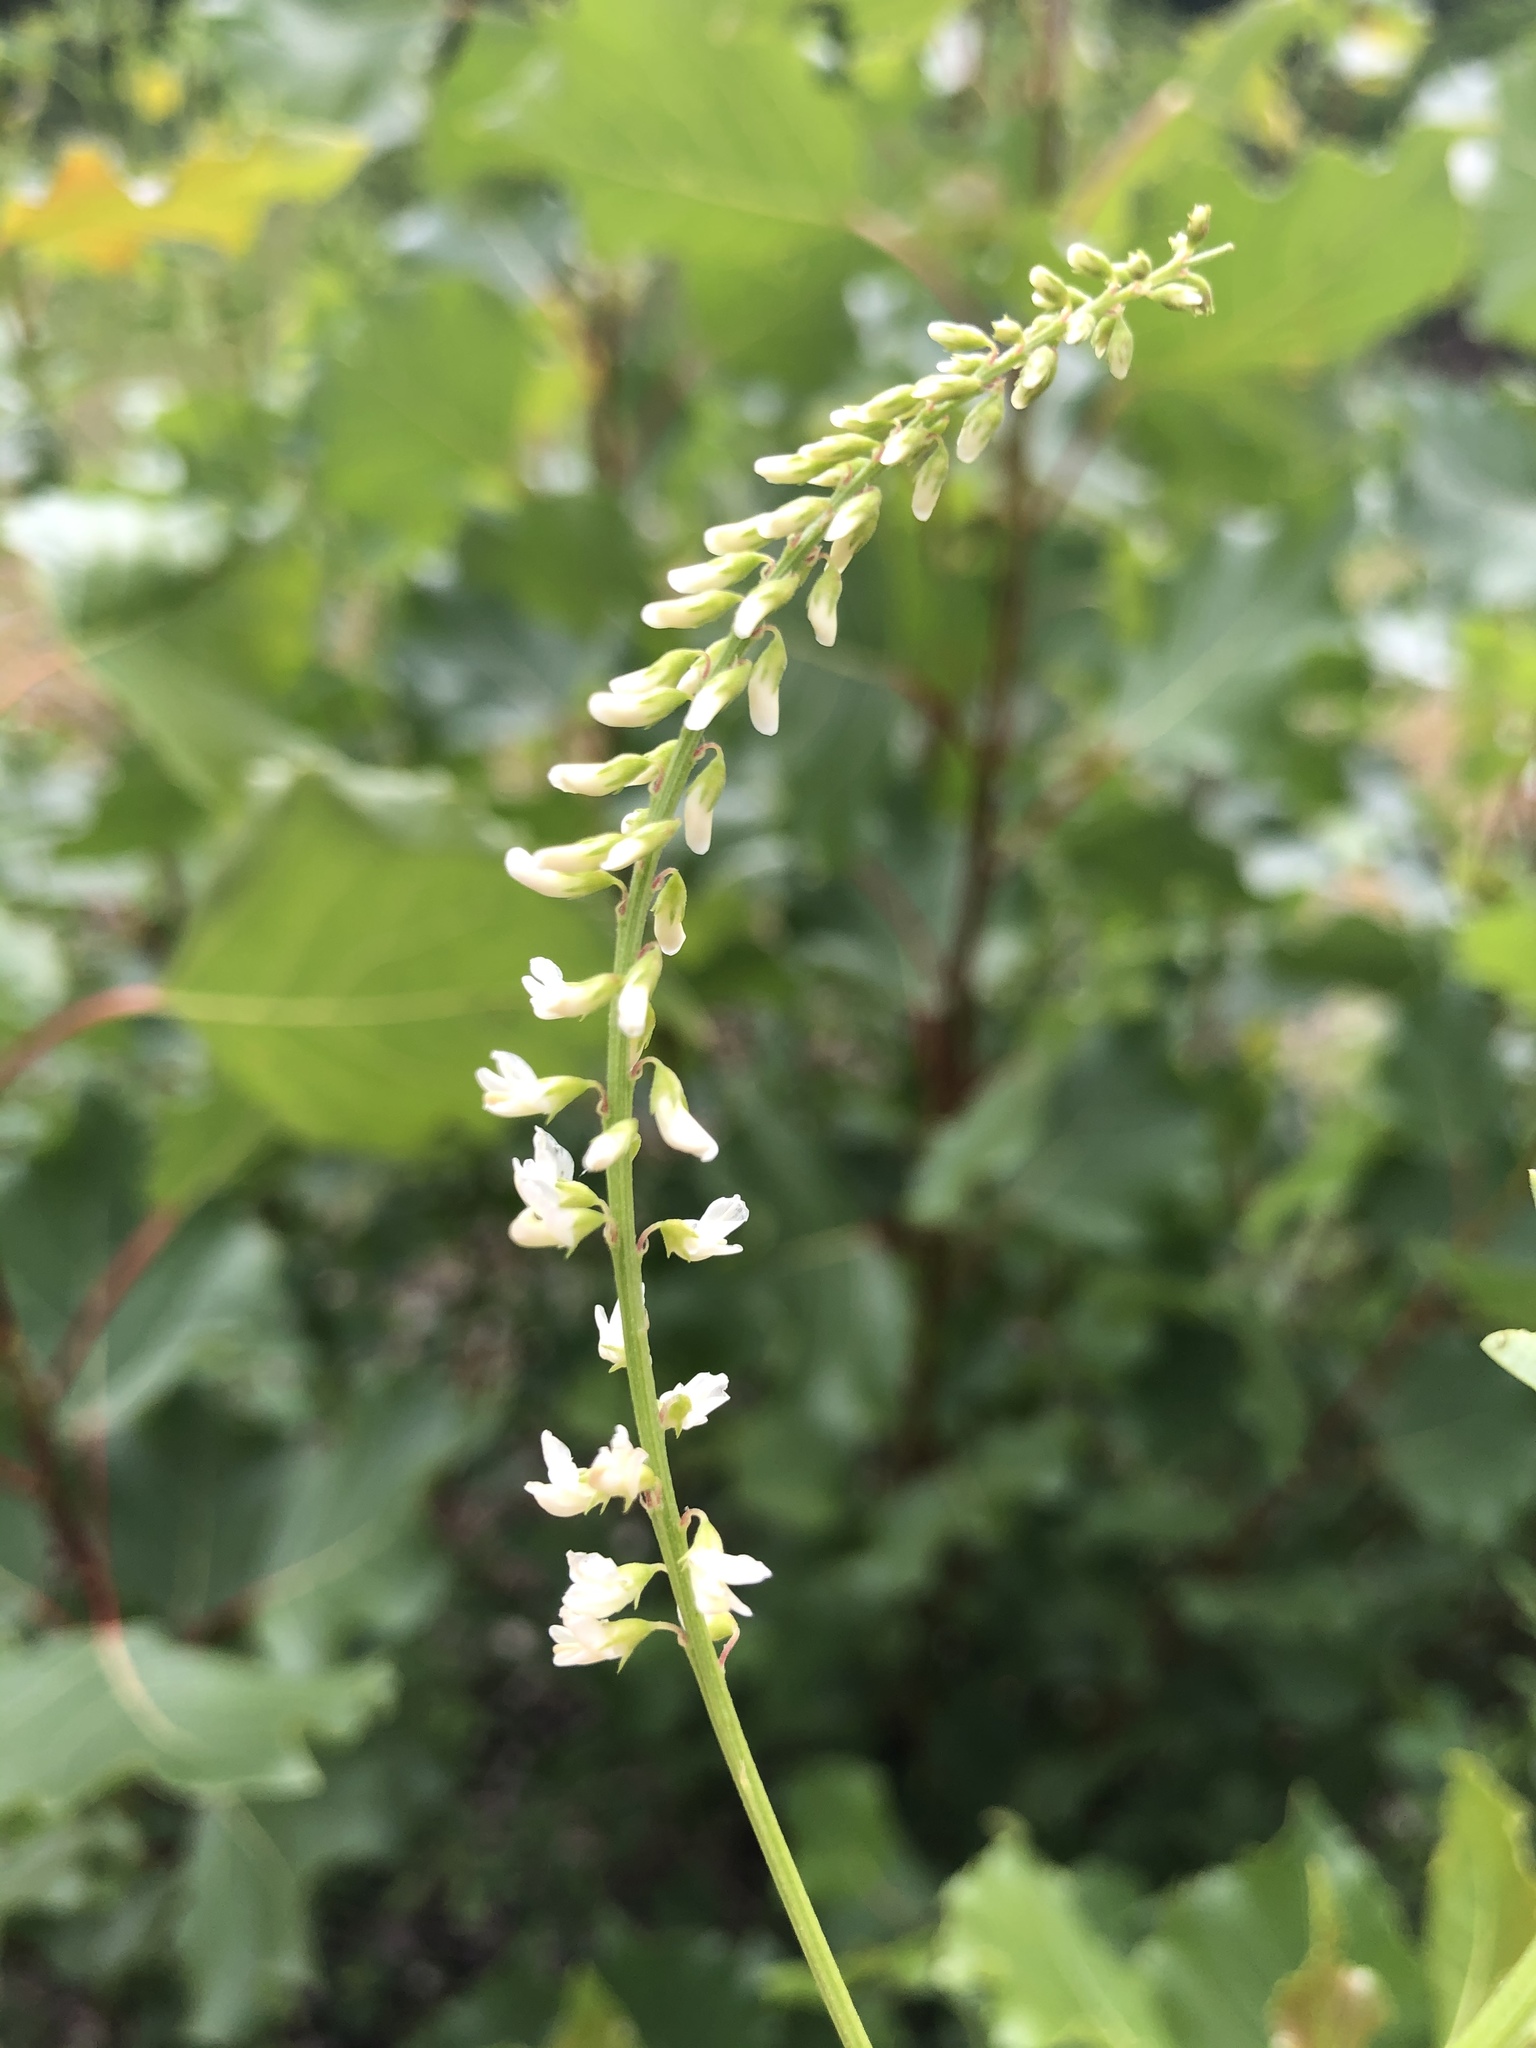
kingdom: Plantae
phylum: Tracheophyta
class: Magnoliopsida
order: Fabales
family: Fabaceae
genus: Melilotus
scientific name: Melilotus albus
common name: White melilot
